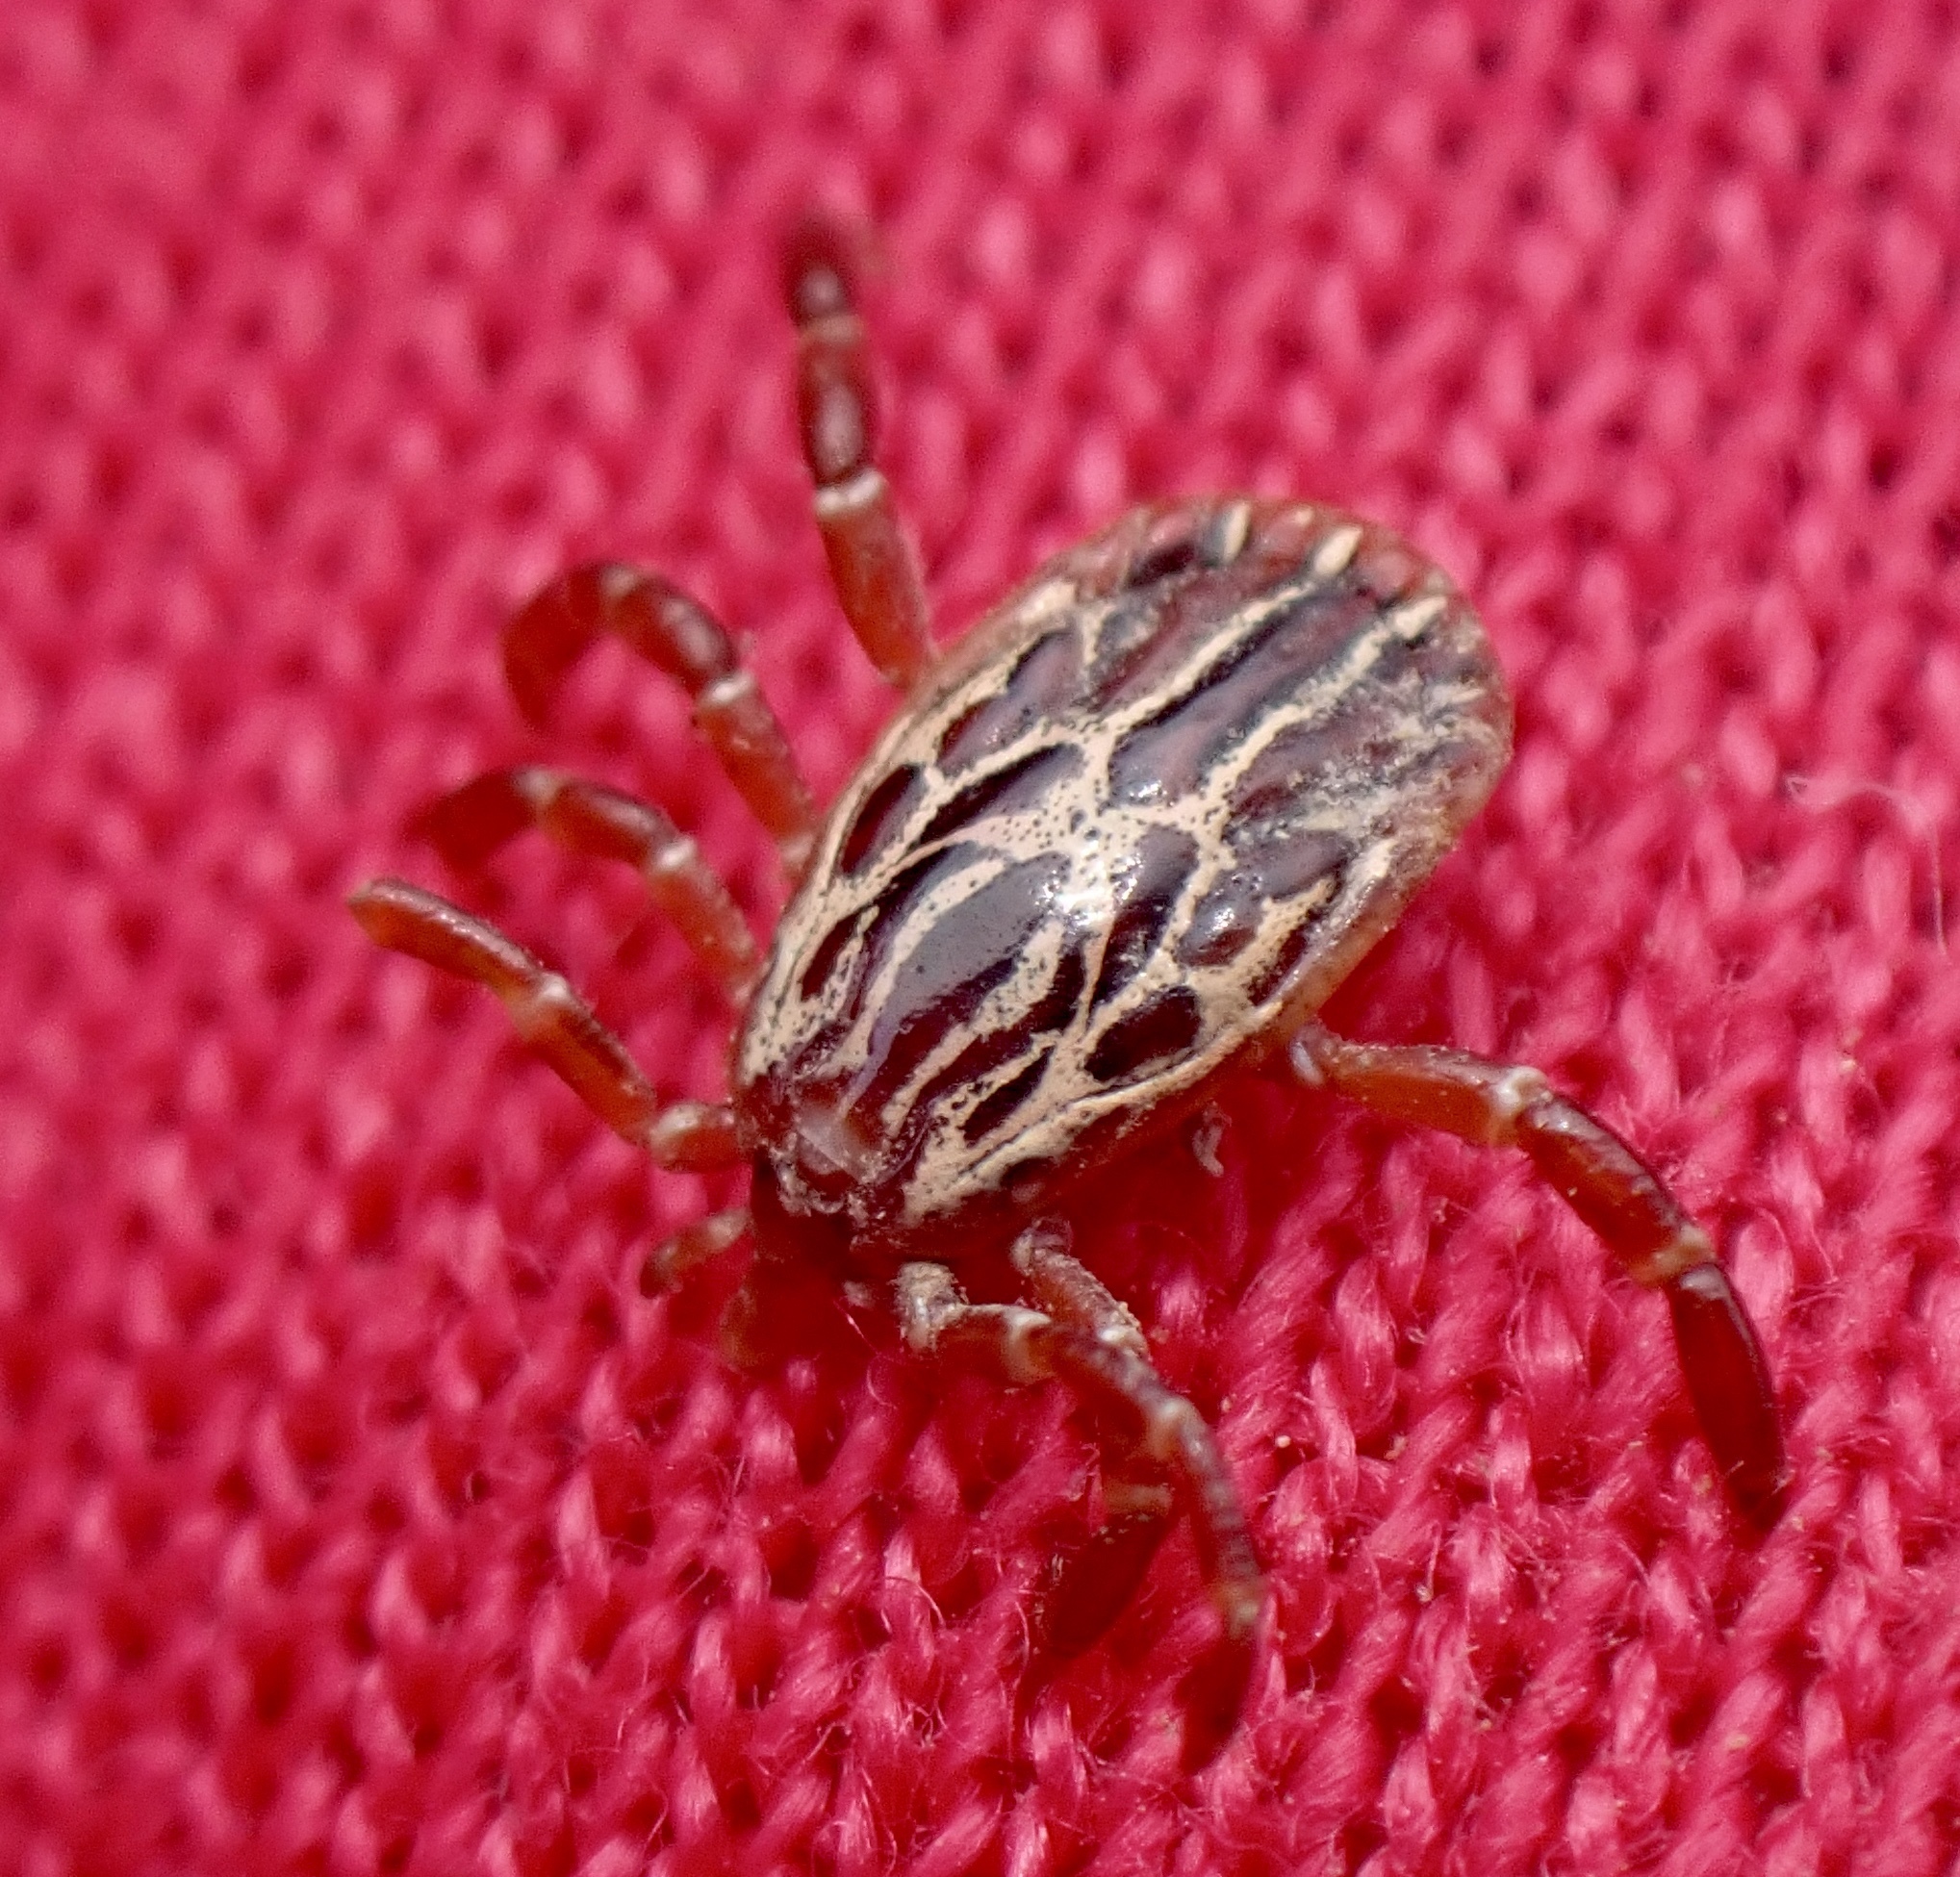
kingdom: Animalia
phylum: Arthropoda
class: Arachnida
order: Ixodida
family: Ixodidae
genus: Amblyomma
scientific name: Amblyomma maculatum
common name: Gulf coast tick
